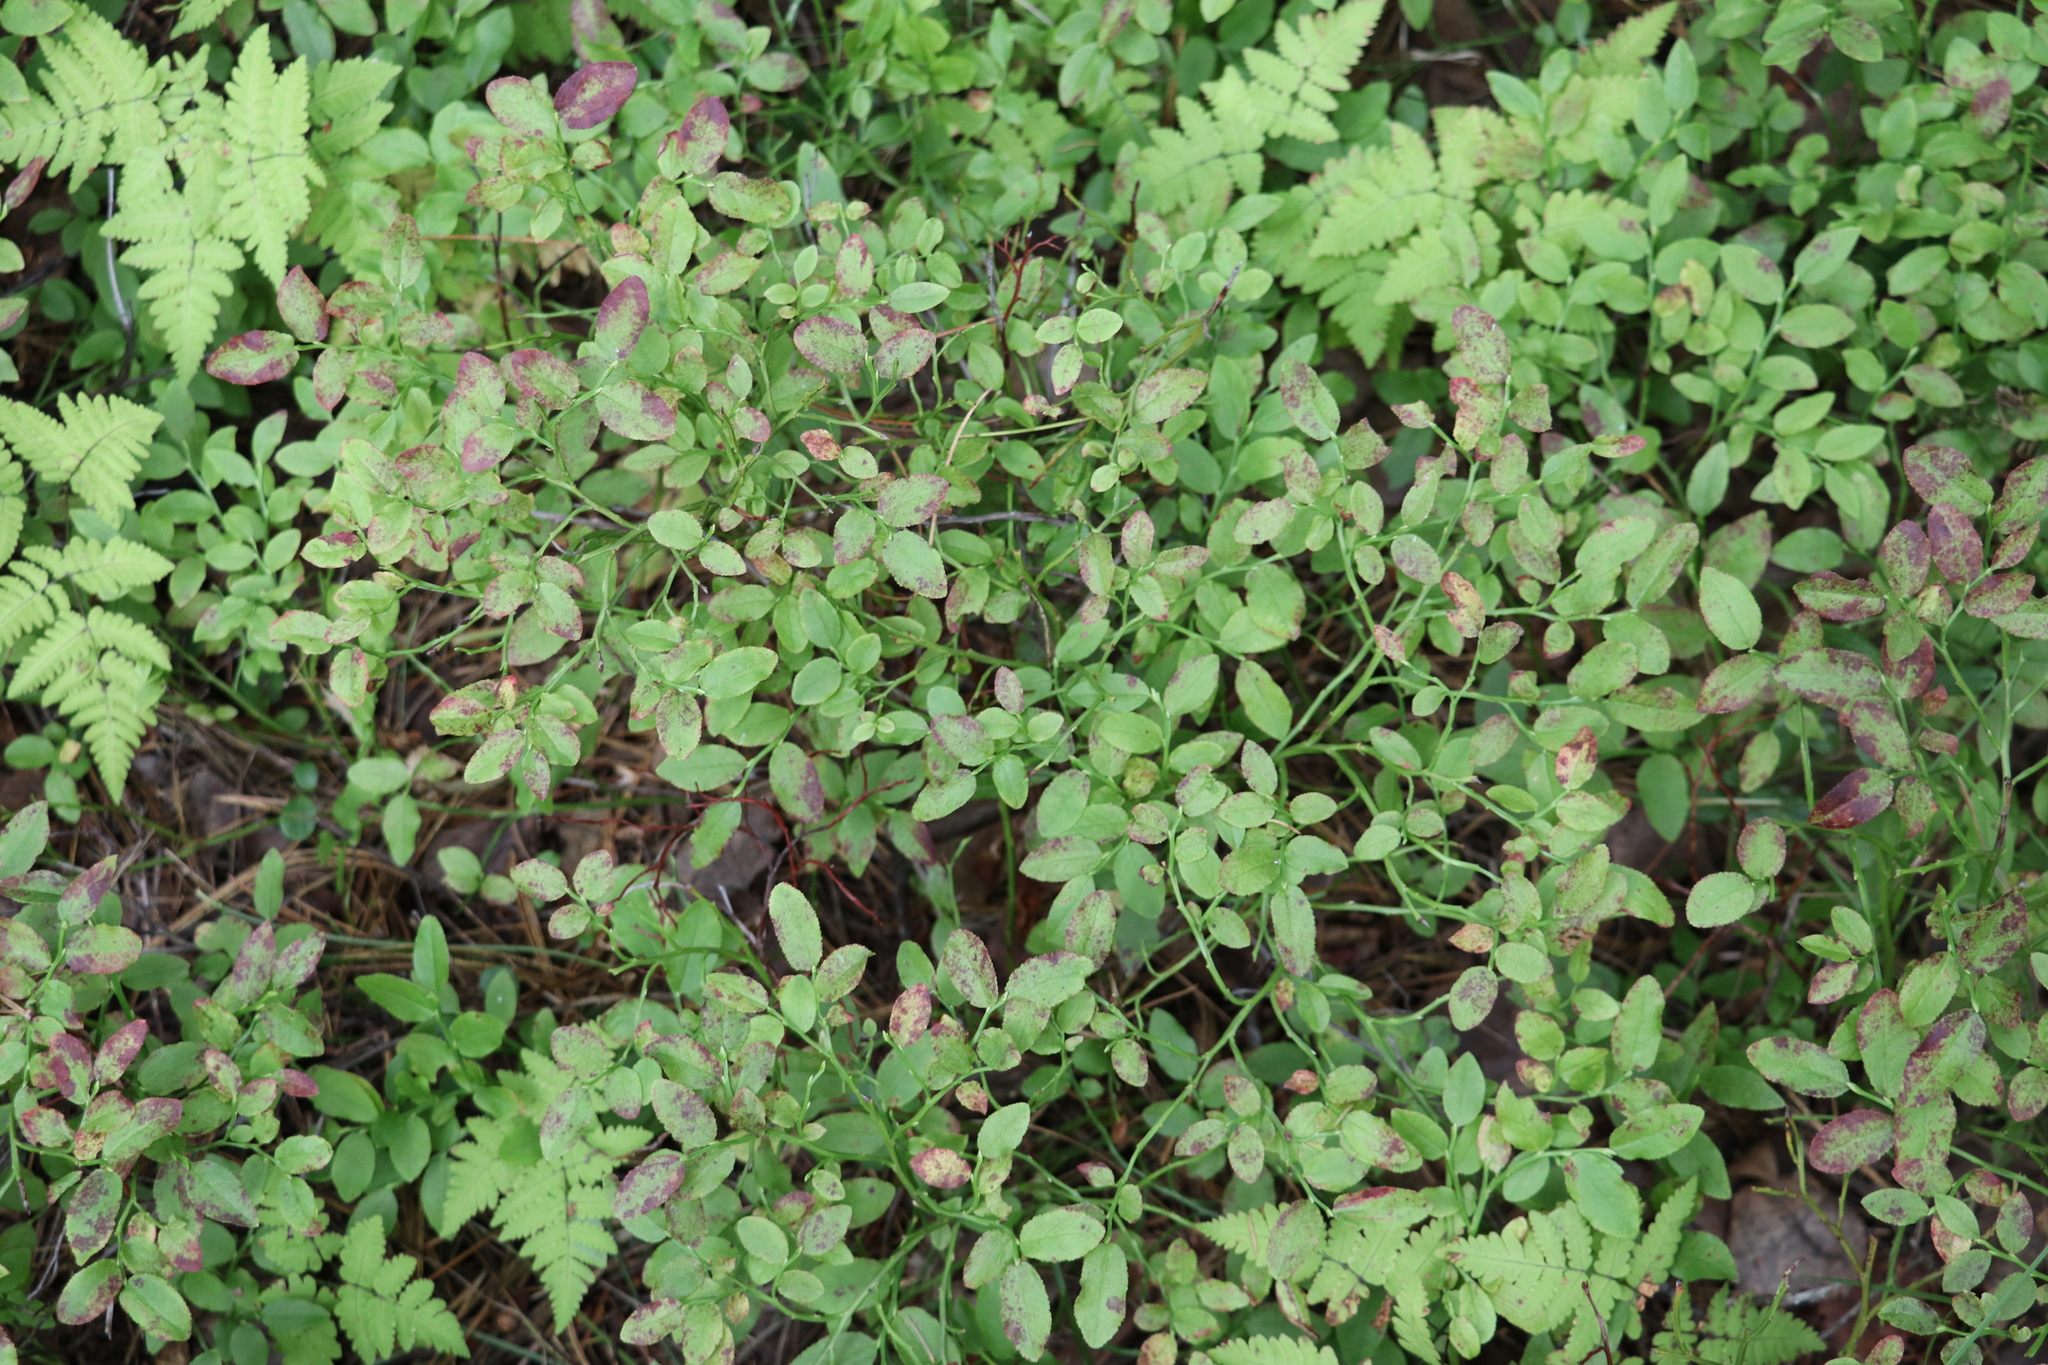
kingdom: Plantae
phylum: Tracheophyta
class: Magnoliopsida
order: Ericales
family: Ericaceae
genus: Vaccinium
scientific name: Vaccinium myrtillus
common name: Bilberry
